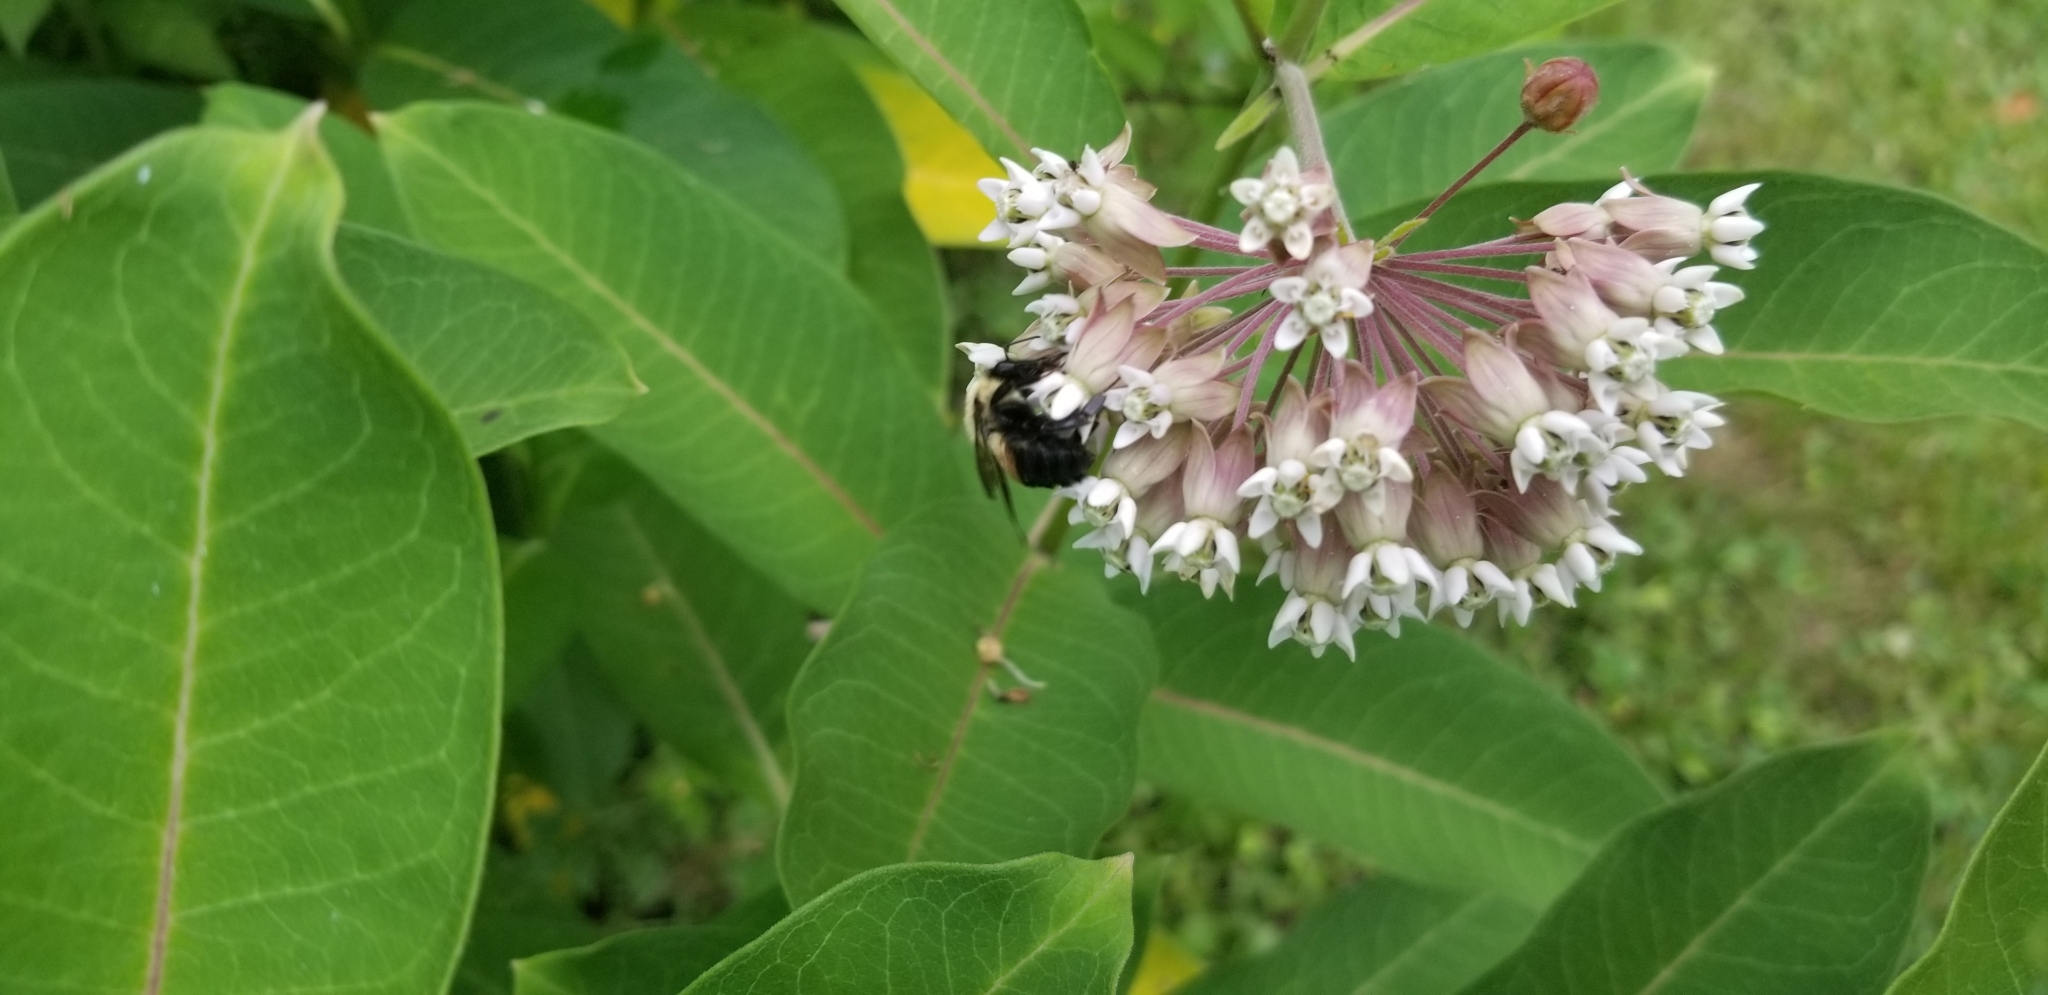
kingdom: Animalia
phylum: Arthropoda
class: Insecta
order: Hymenoptera
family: Apidae
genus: Bombus
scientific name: Bombus griseocollis
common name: Brown-belted bumble bee
